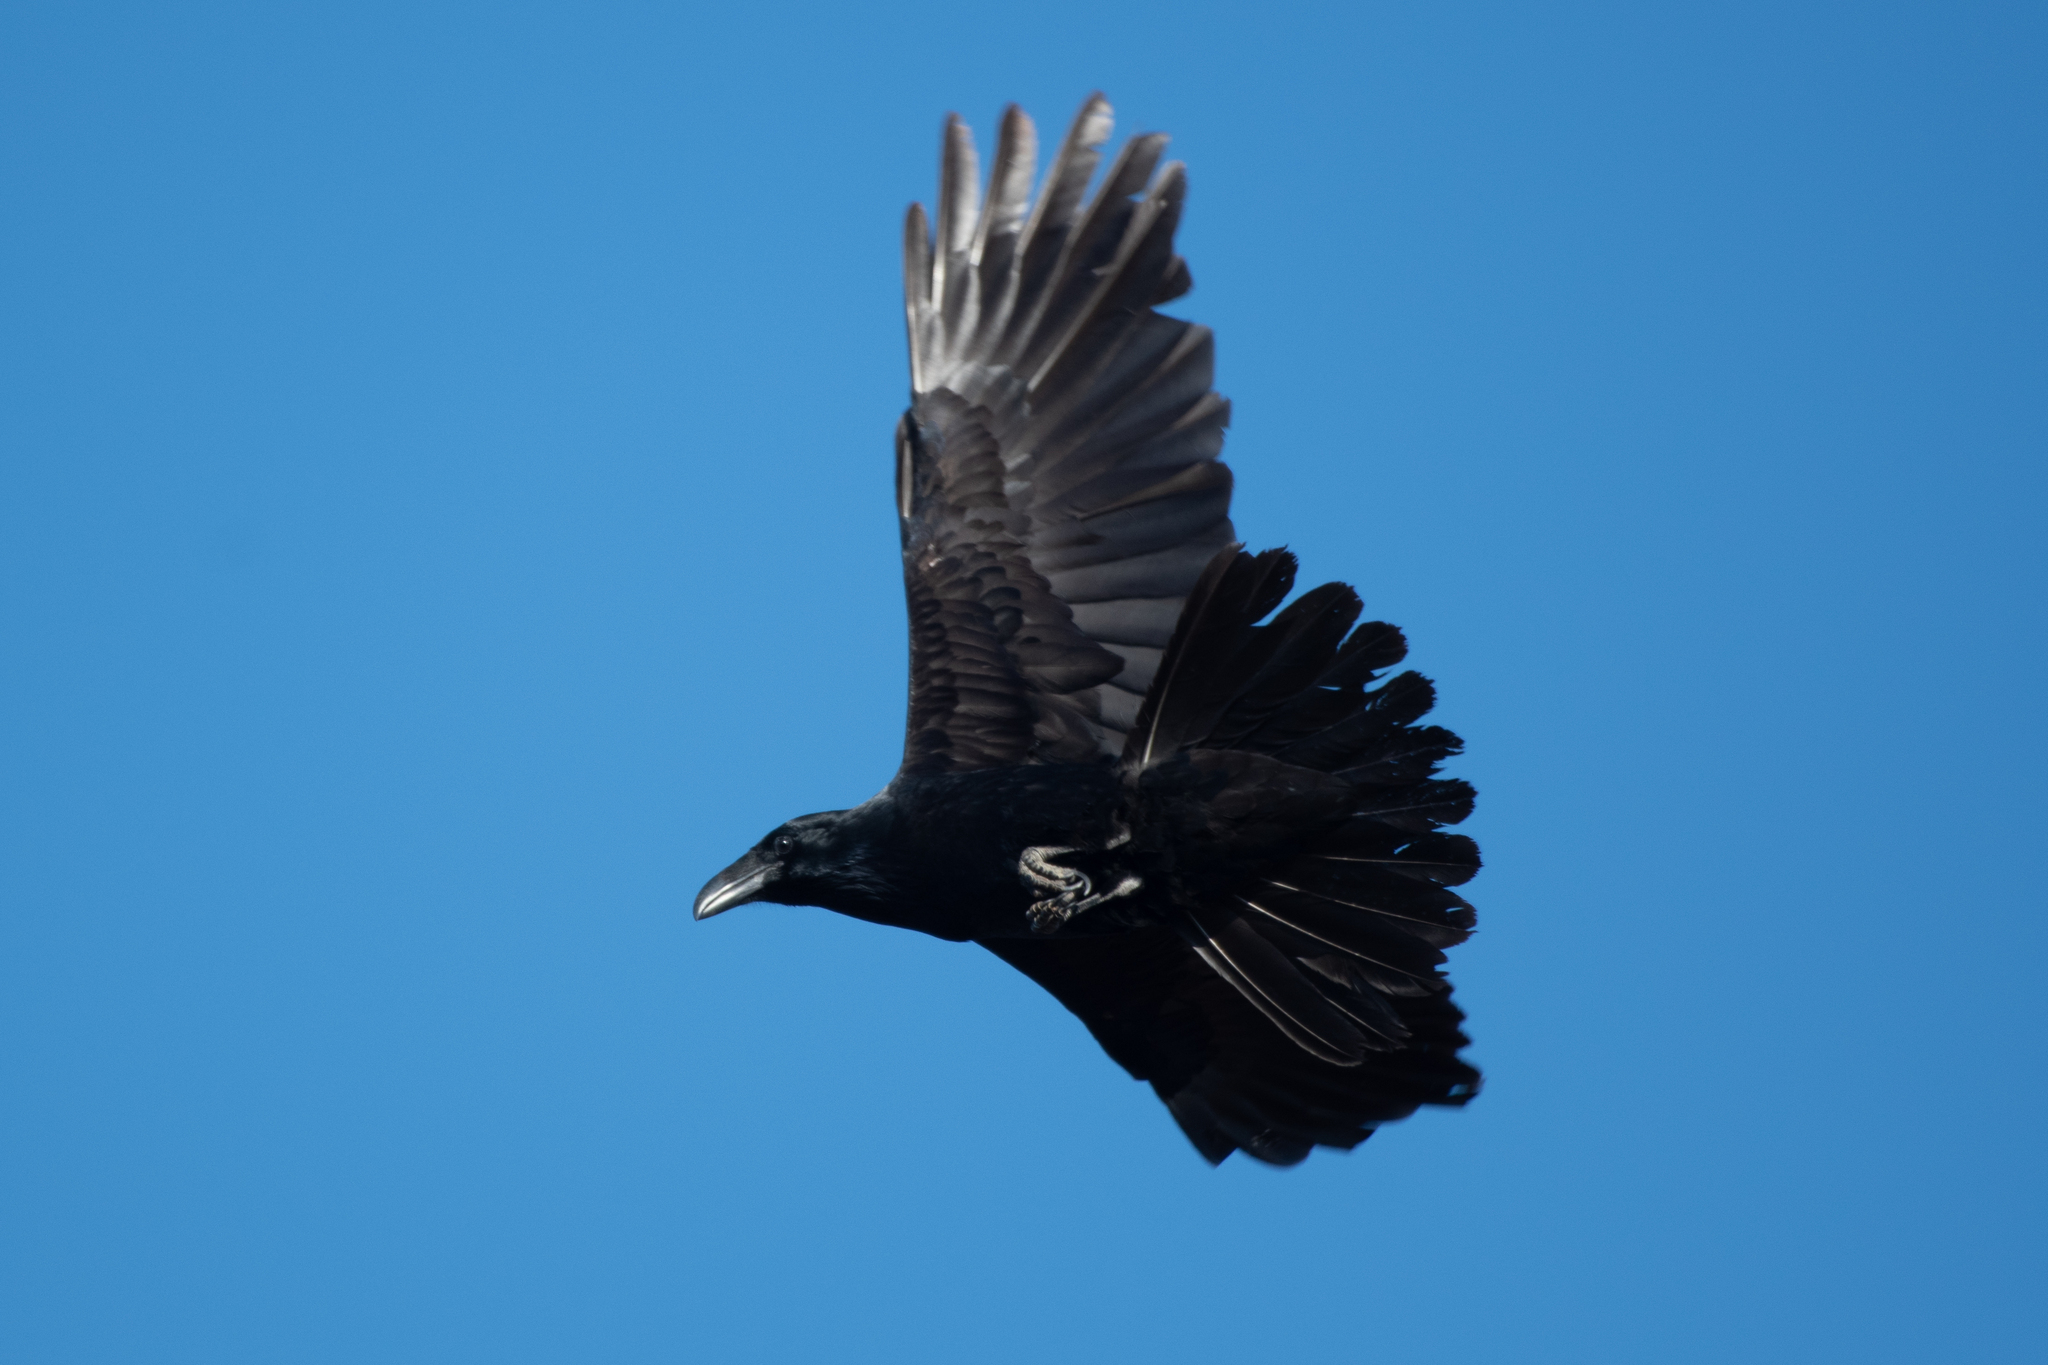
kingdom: Animalia
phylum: Chordata
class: Aves
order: Passeriformes
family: Corvidae
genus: Corvus
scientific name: Corvus corax
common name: Common raven
